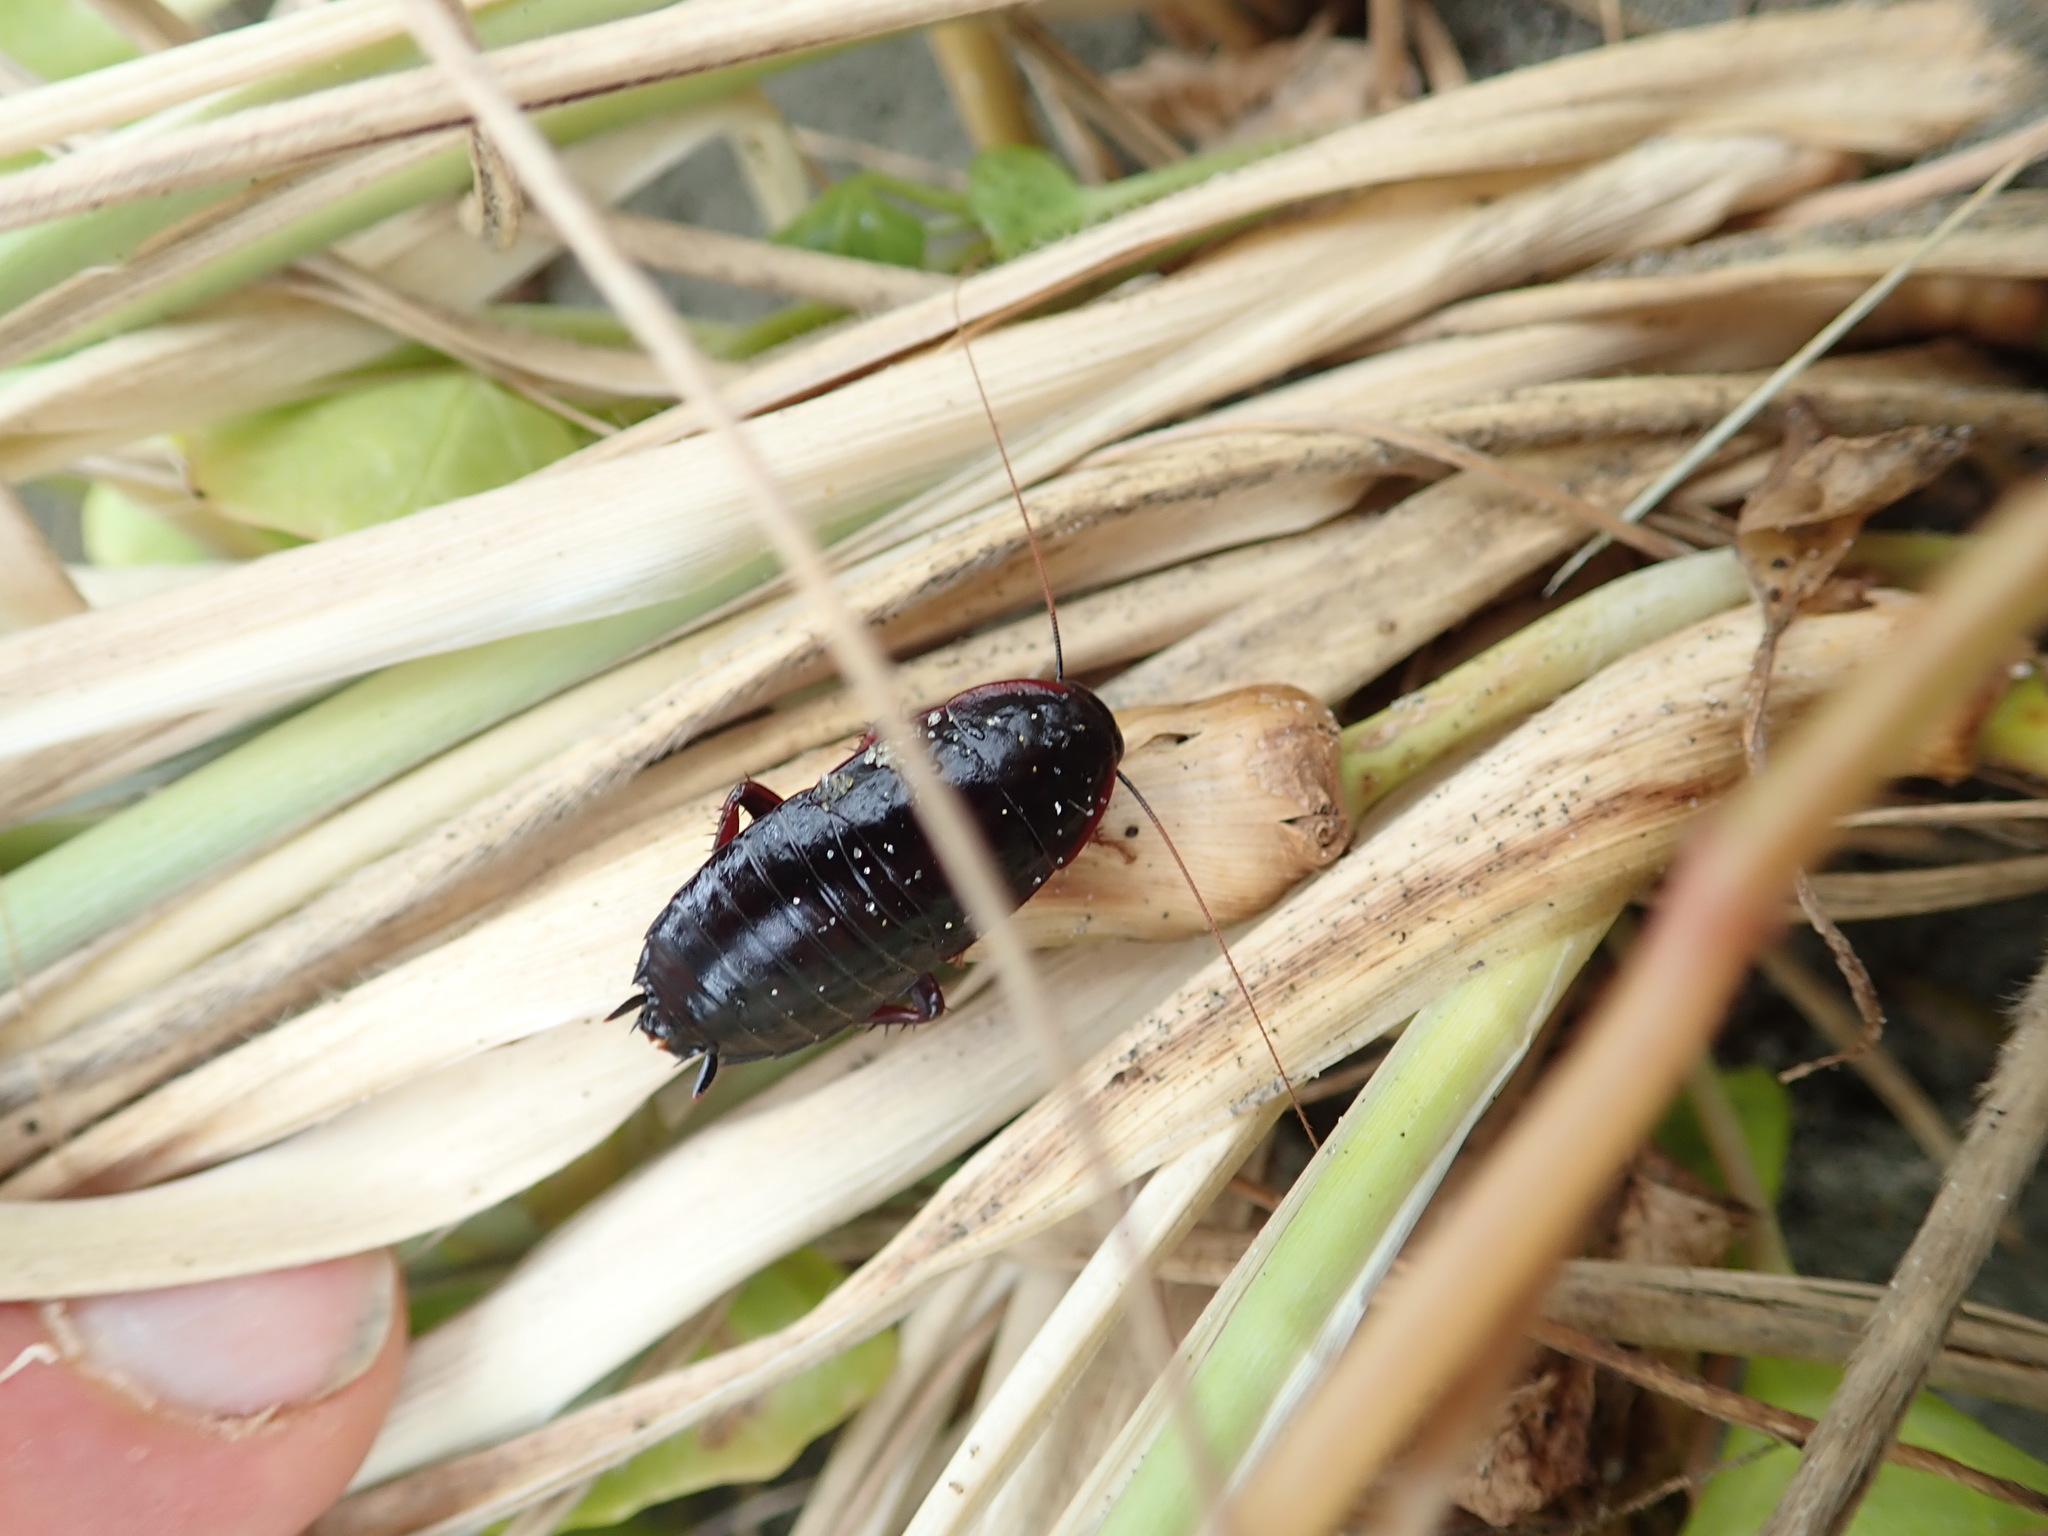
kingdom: Animalia
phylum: Arthropoda
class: Insecta
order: Blattodea
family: Blattidae
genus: Maoriblatta
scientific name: Maoriblatta novaeseelandiae
